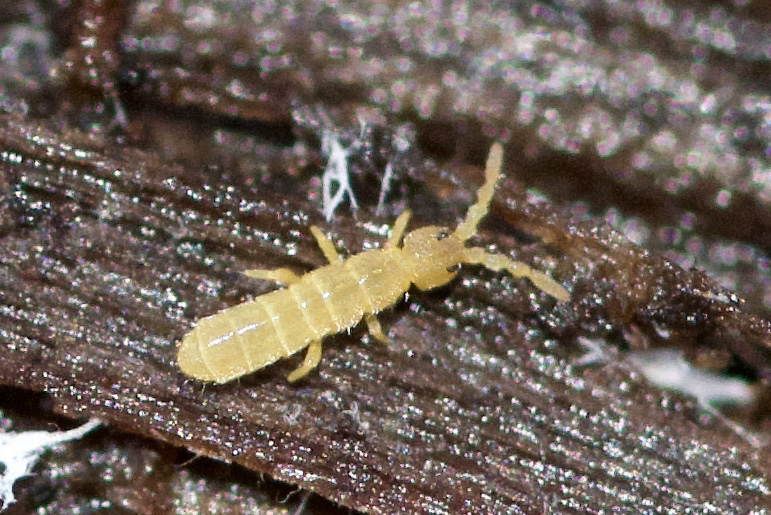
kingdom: Animalia
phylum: Arthropoda
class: Collembola
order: Entomobryomorpha
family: Isotomidae
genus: Vertagopus
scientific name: Vertagopus pseudocinereus
